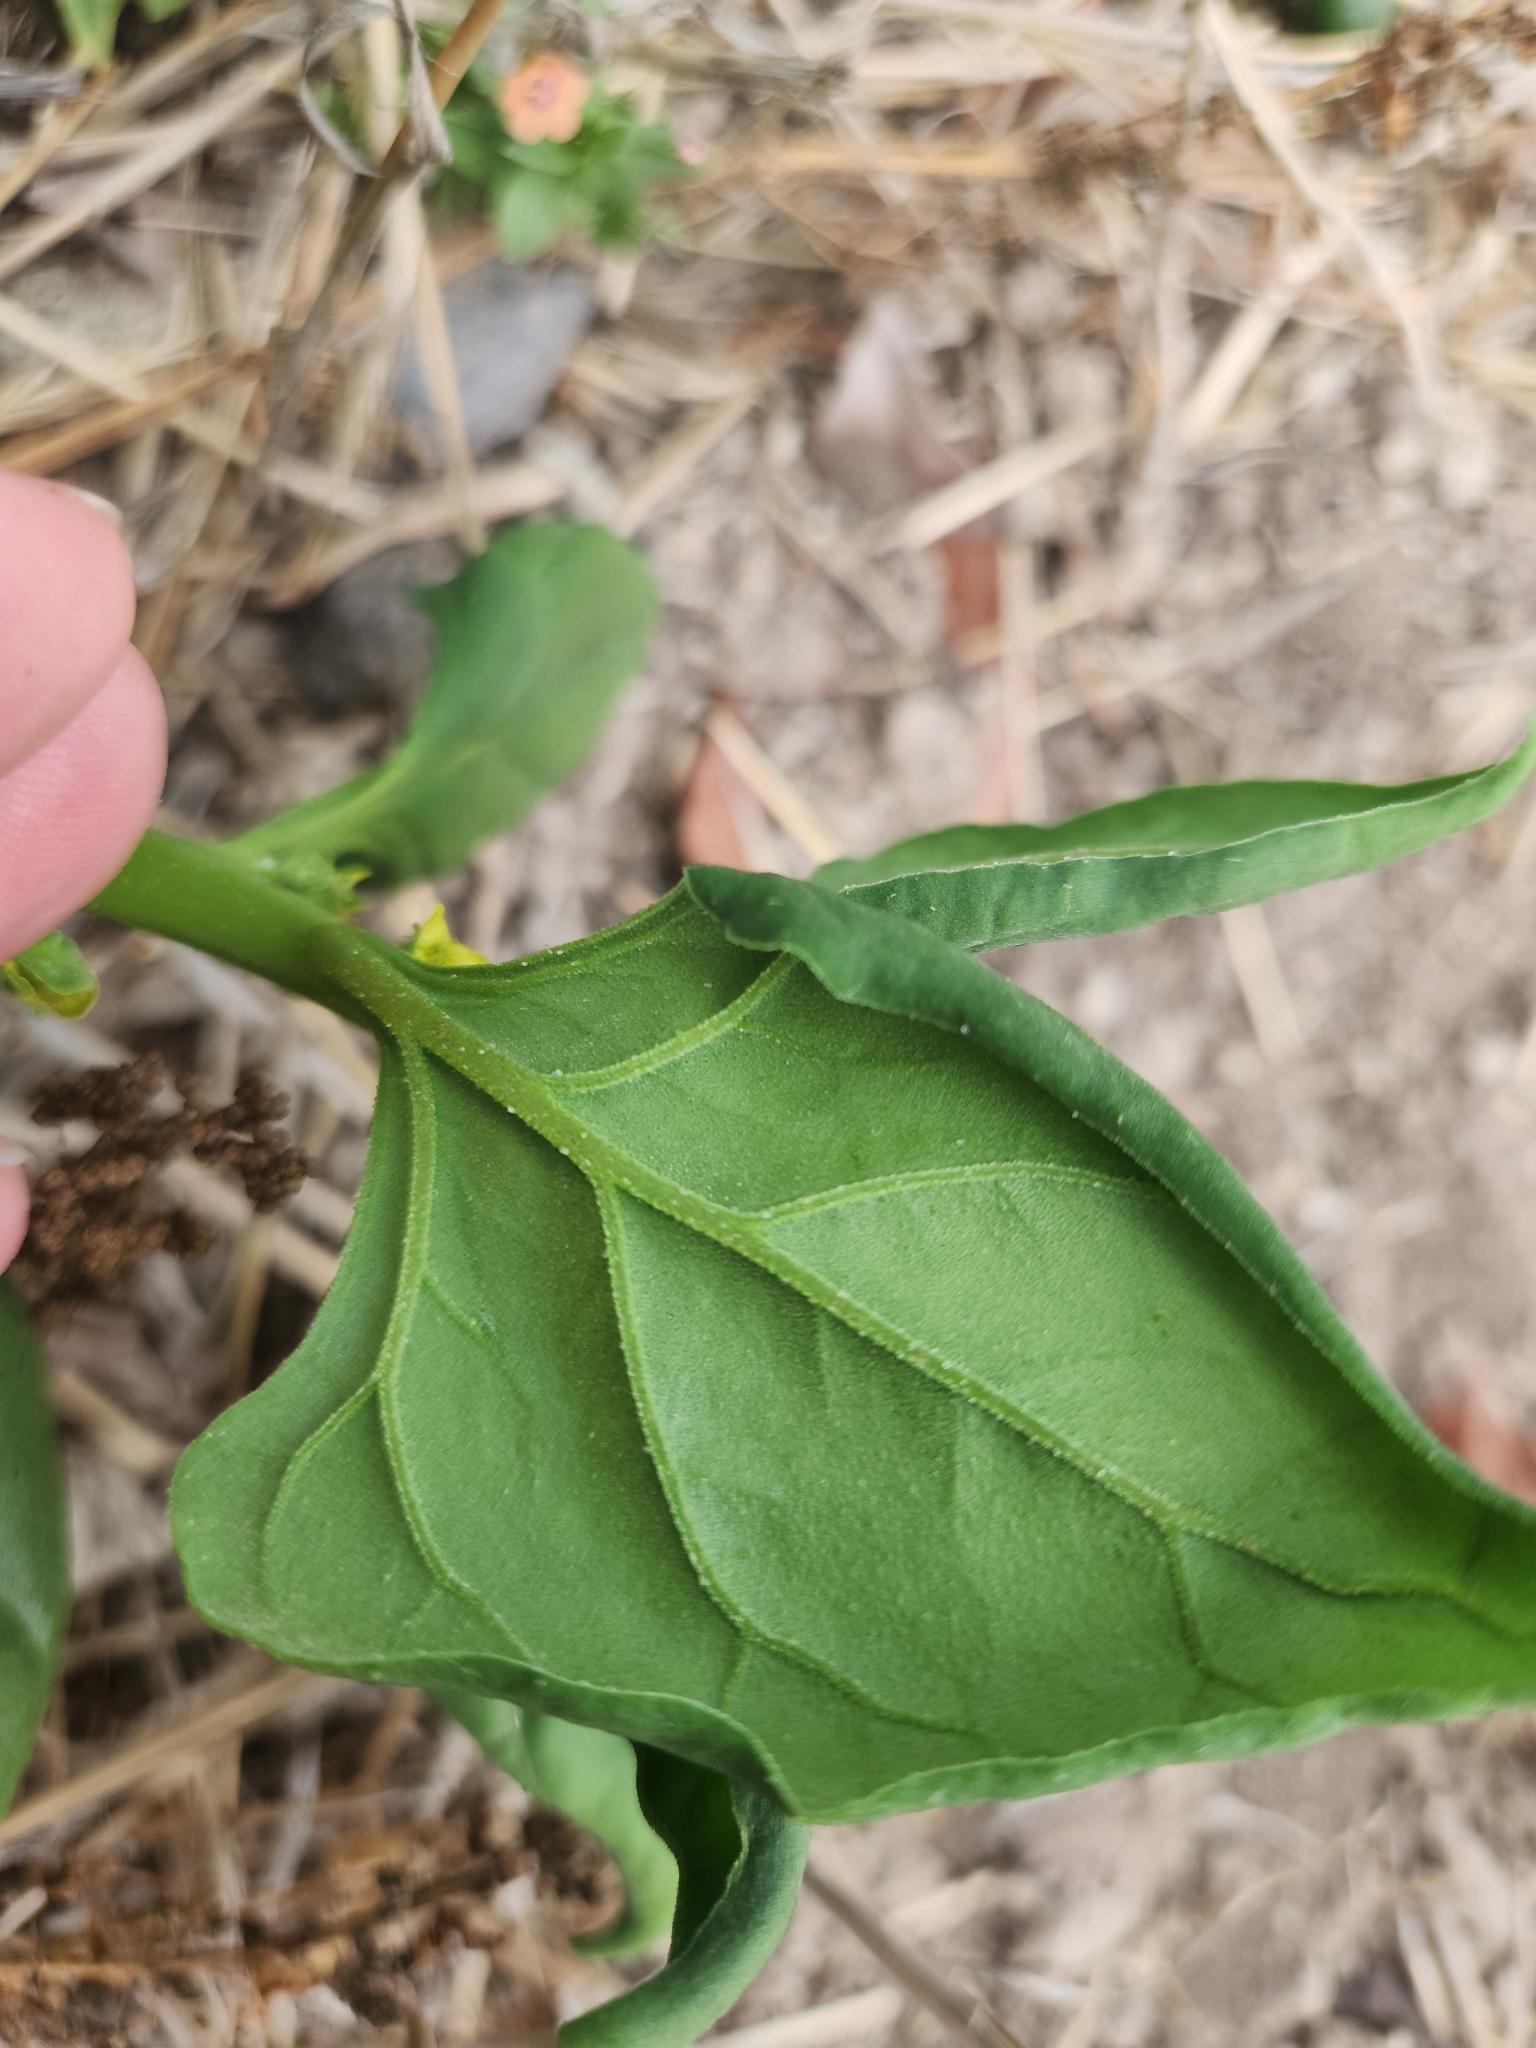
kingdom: Plantae
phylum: Tracheophyta
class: Magnoliopsida
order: Caryophyllales
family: Aizoaceae
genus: Tetragonia
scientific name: Tetragonia tetragonoides
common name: New zealand-spinach
